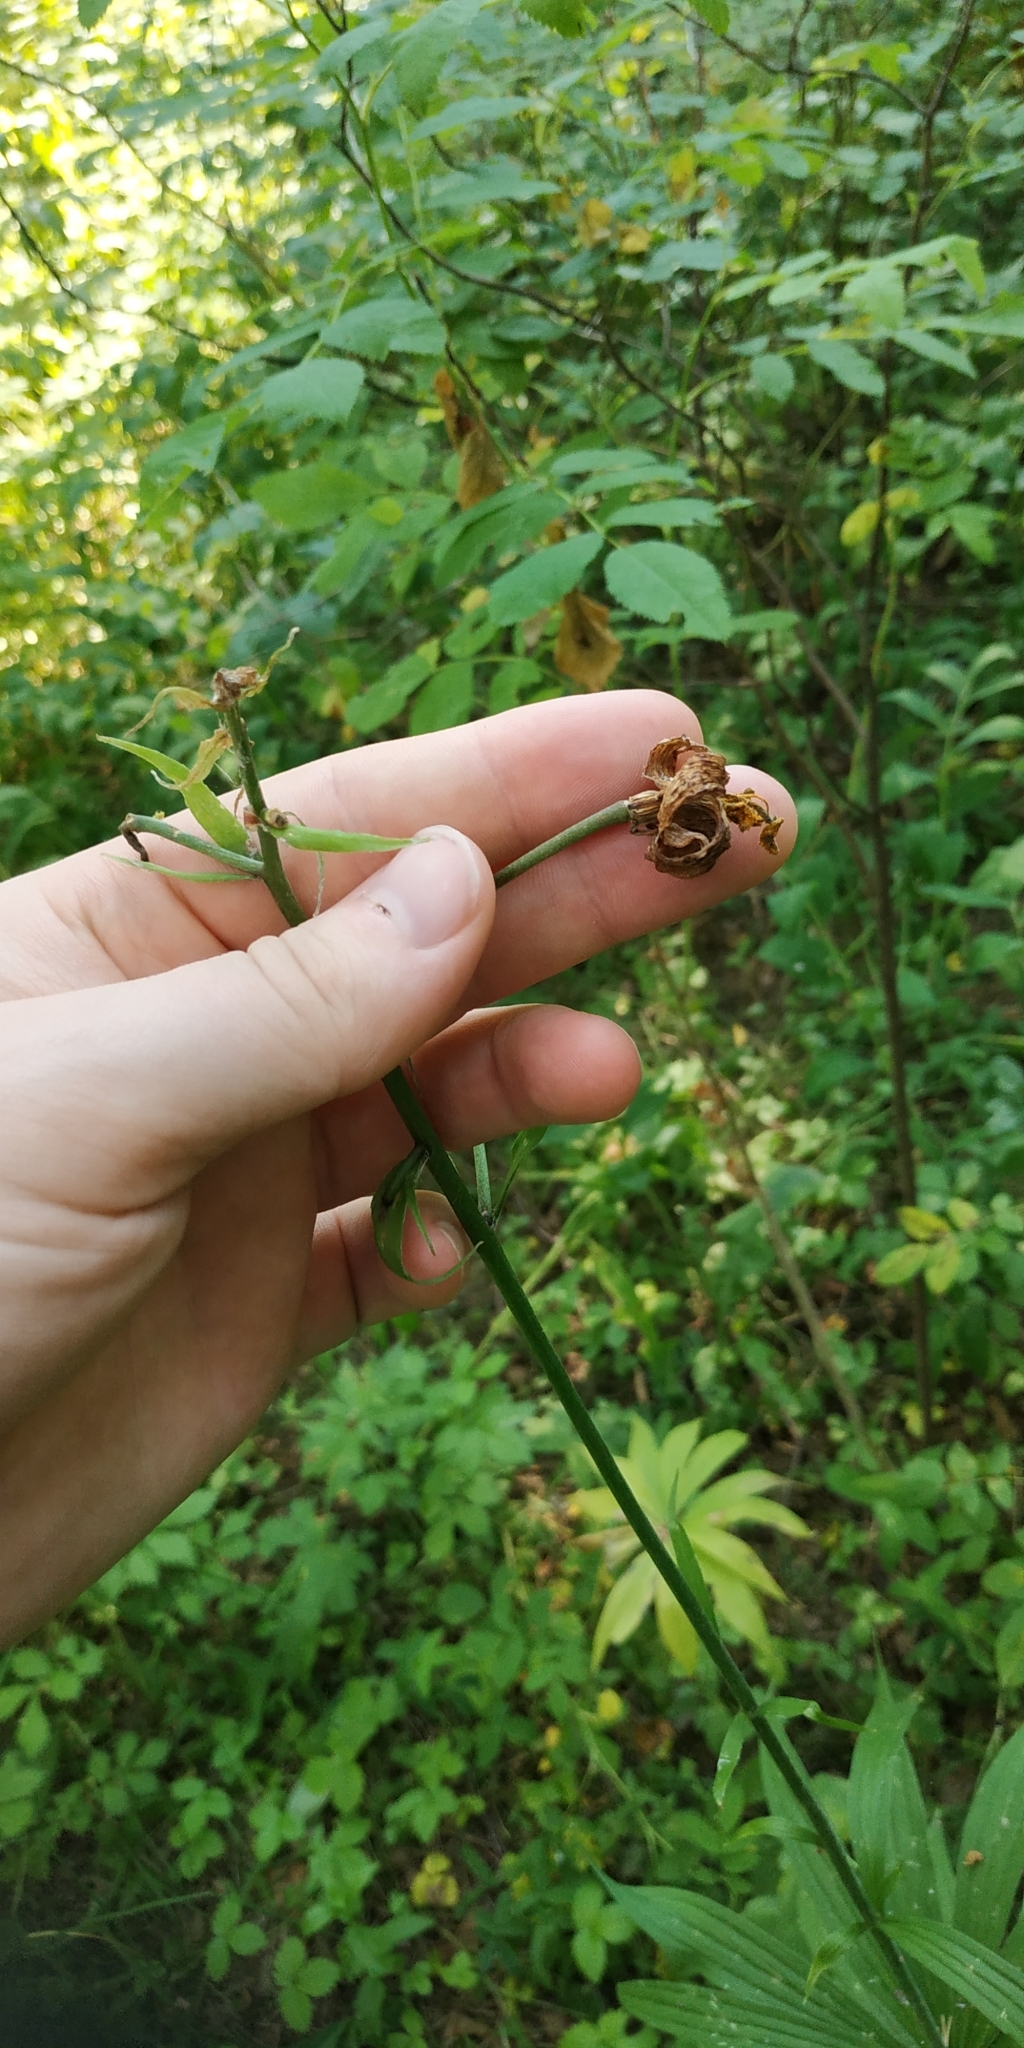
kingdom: Plantae
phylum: Tracheophyta
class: Liliopsida
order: Liliales
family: Liliaceae
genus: Lilium
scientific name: Lilium martagon
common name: Martagon lily
